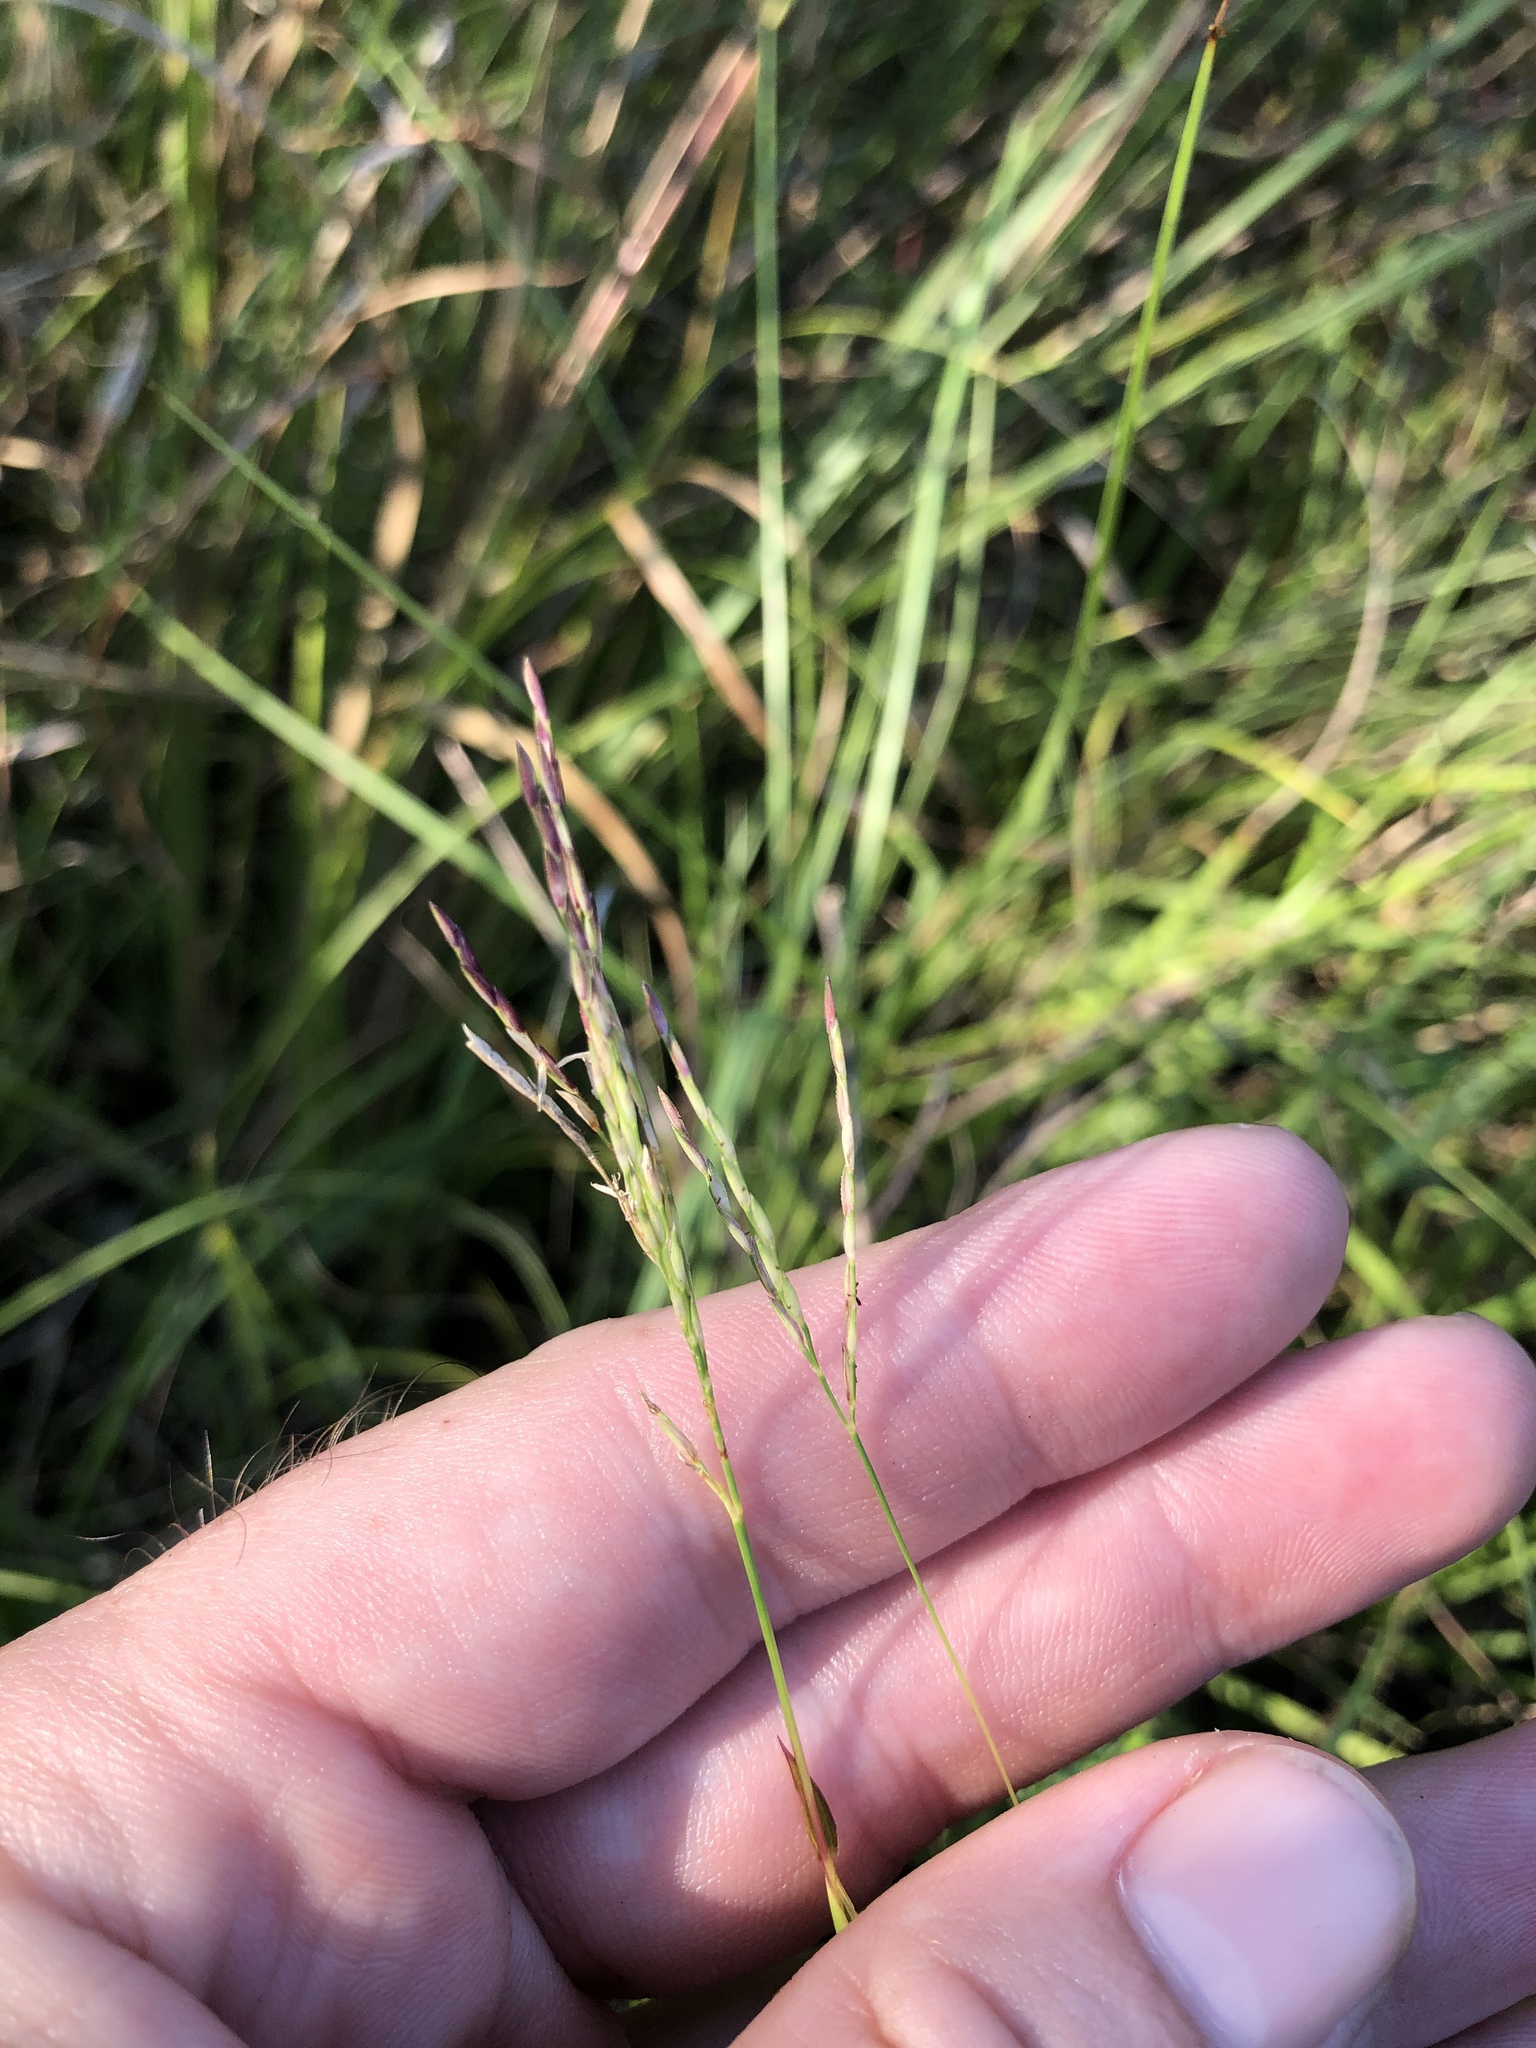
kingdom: Plantae
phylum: Tracheophyta
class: Liliopsida
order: Poales
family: Poaceae
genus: Arthraxon
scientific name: Arthraxon hispidus
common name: Small carpgrass
